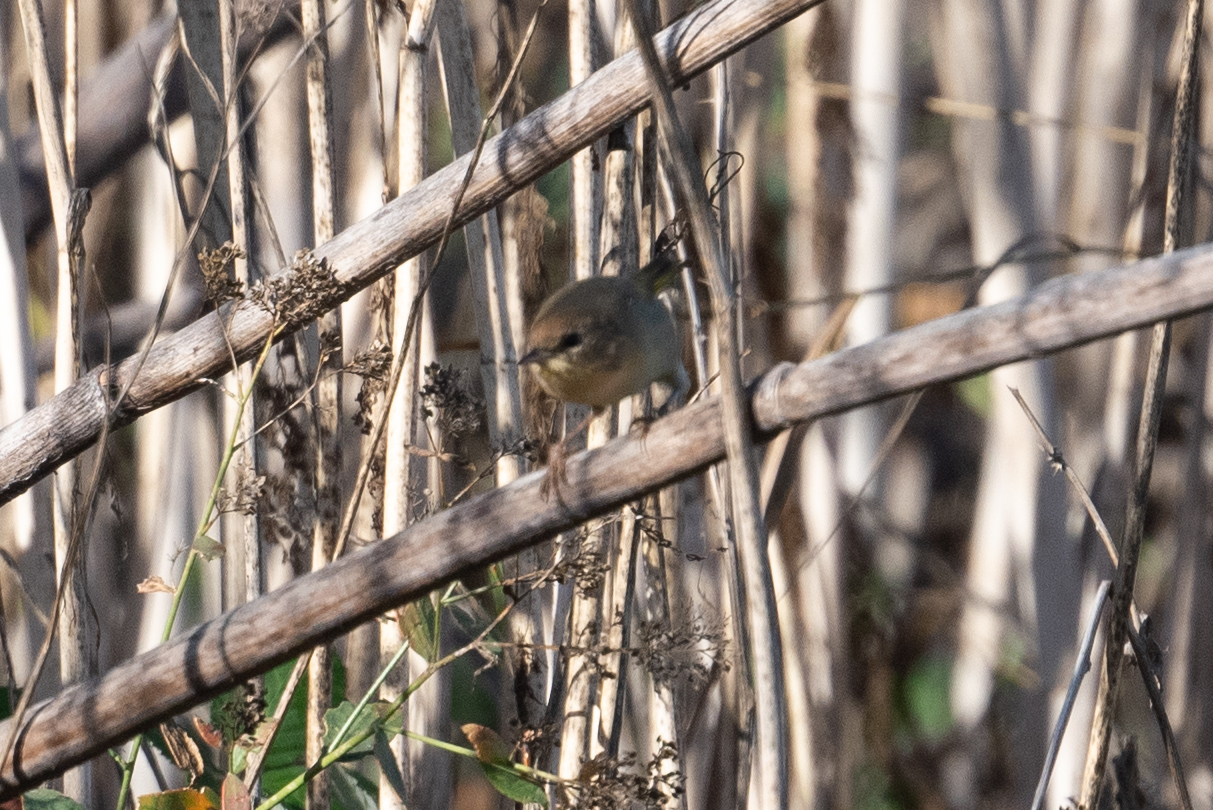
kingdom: Animalia
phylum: Chordata
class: Aves
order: Passeriformes
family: Parulidae
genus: Geothlypis
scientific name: Geothlypis trichas
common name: Common yellowthroat
